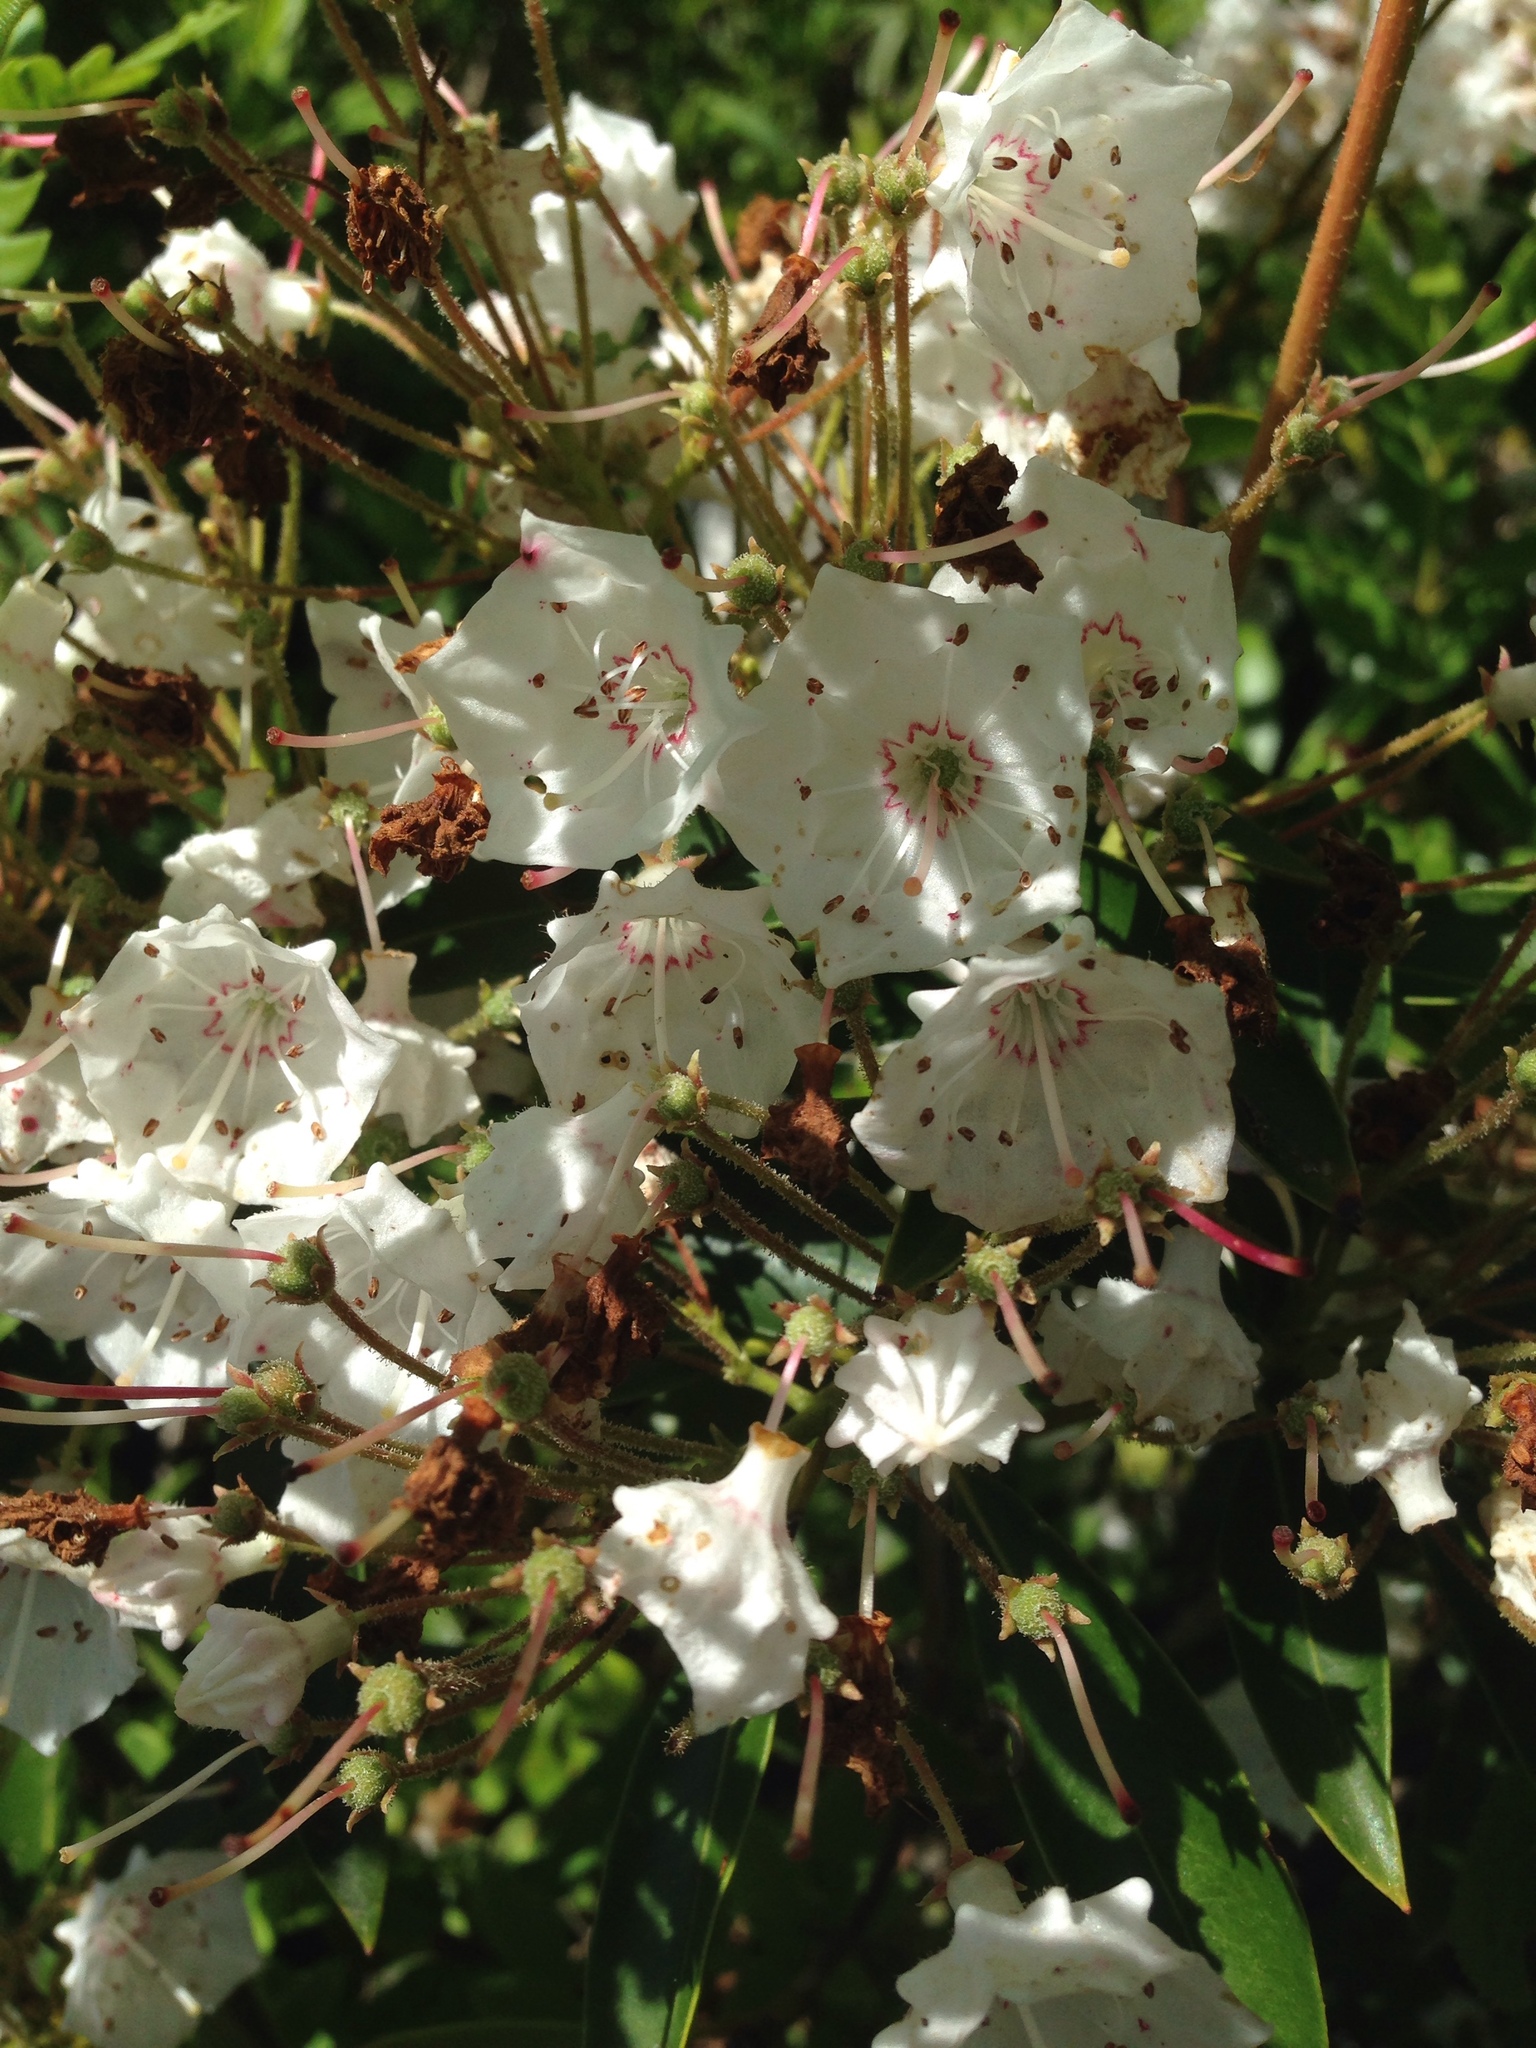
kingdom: Plantae
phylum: Tracheophyta
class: Magnoliopsida
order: Ericales
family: Ericaceae
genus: Kalmia
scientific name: Kalmia latifolia
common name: Mountain-laurel
